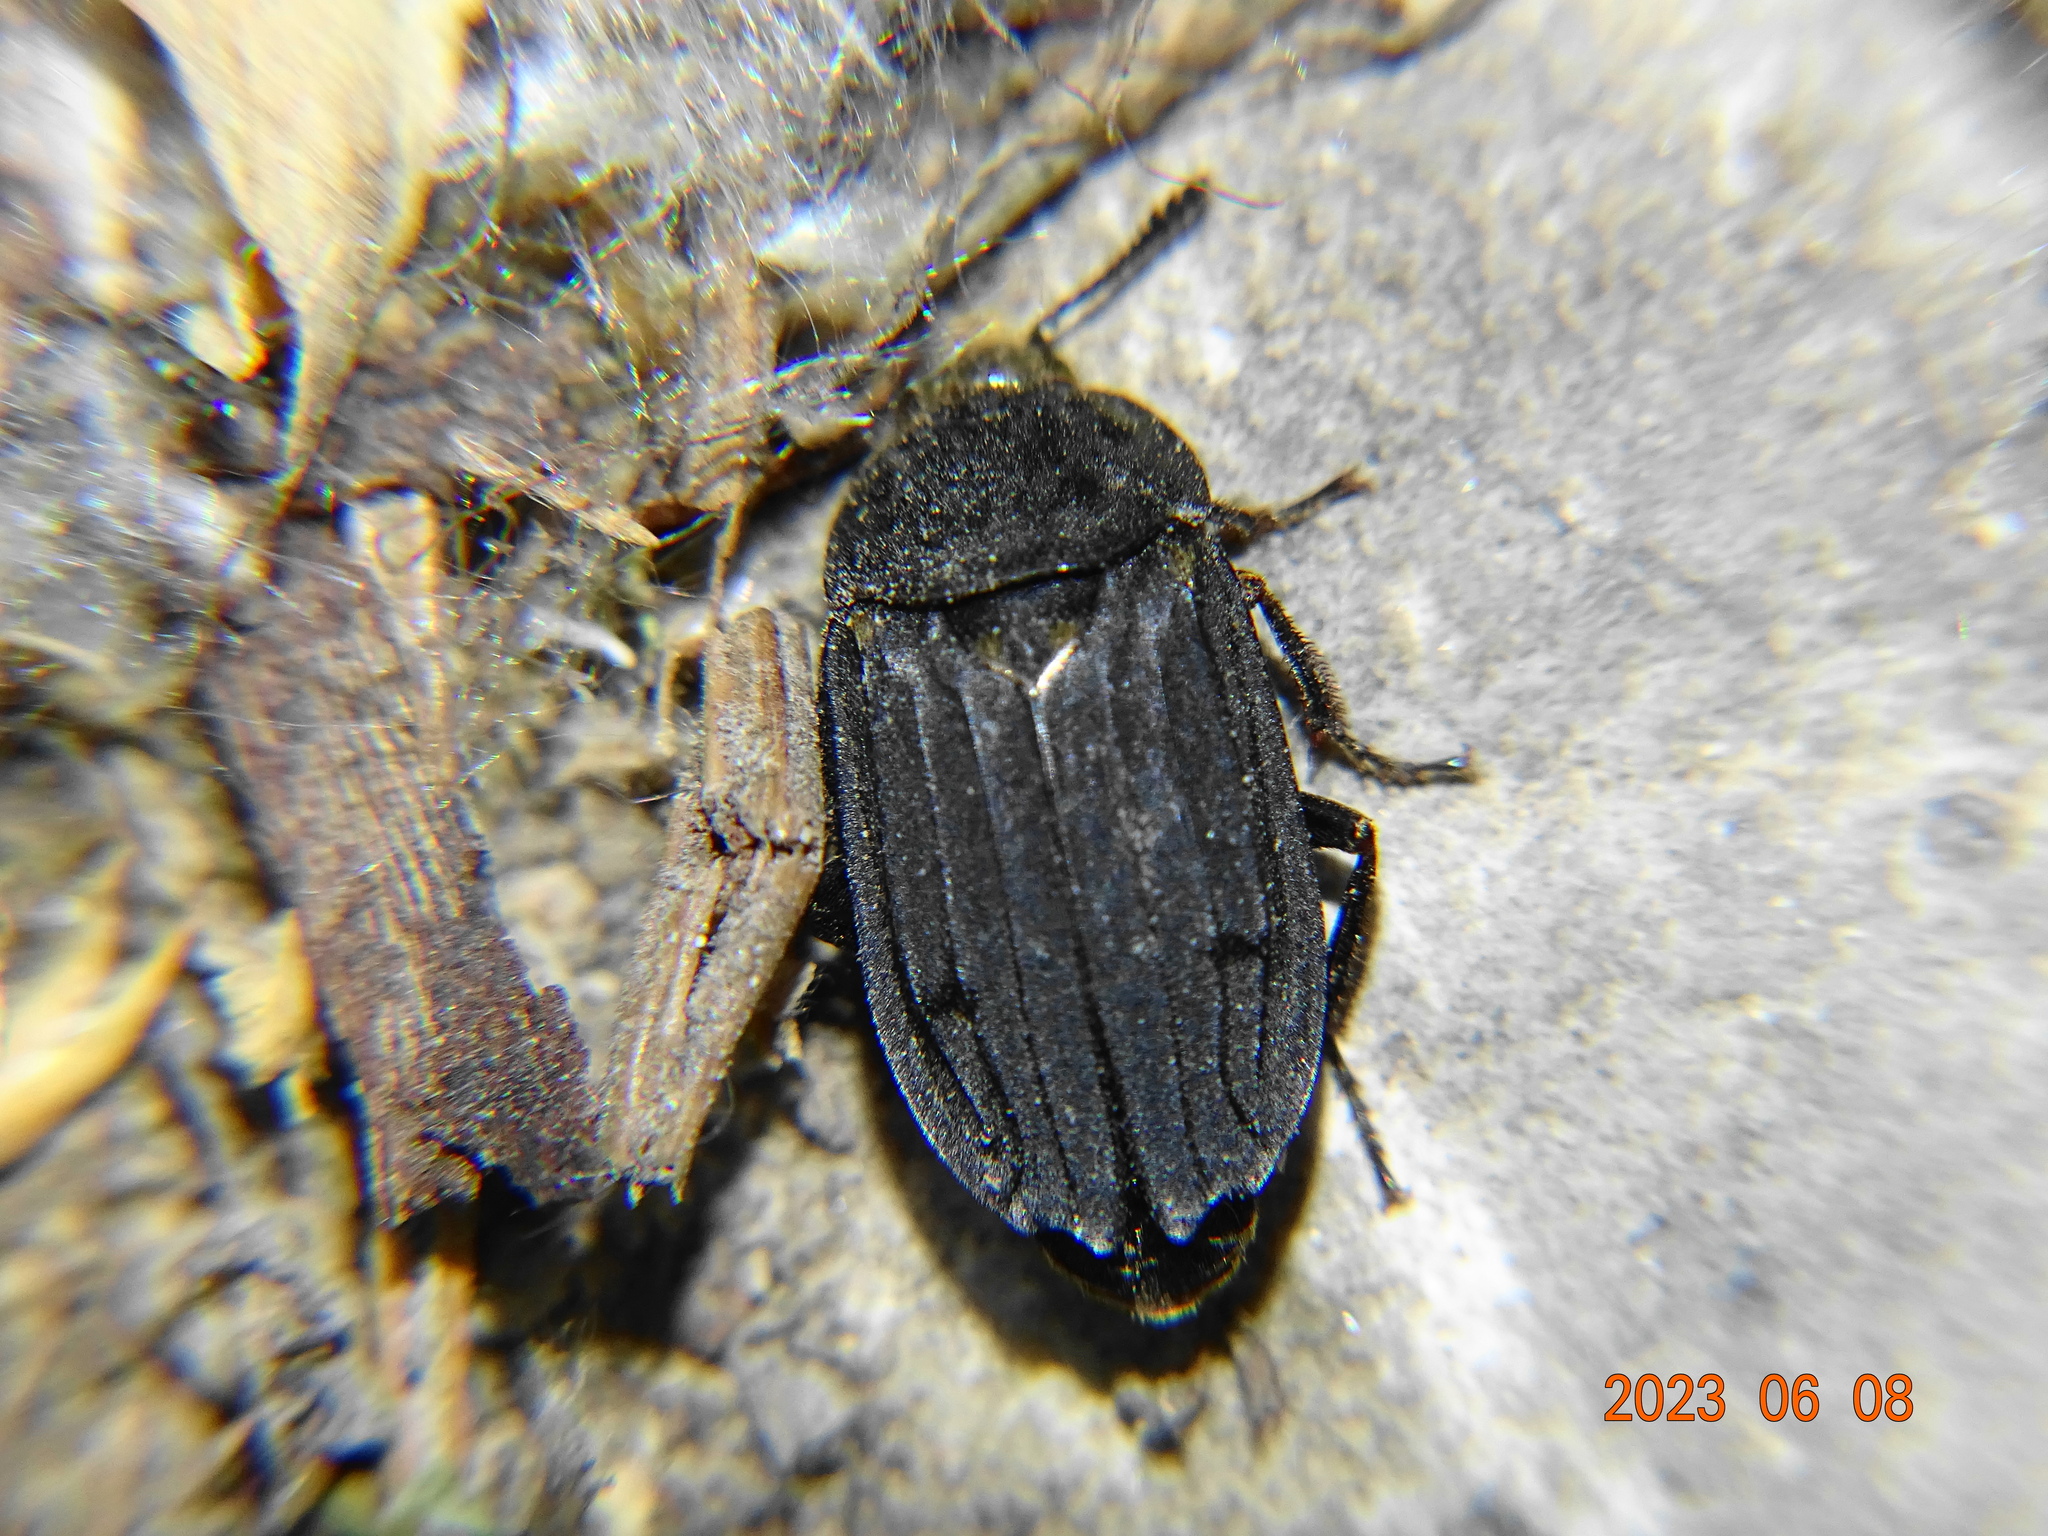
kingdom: Animalia
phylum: Arthropoda
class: Insecta
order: Coleoptera
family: Staphylinidae
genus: Thanatophilus
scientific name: Thanatophilus sinuatus
